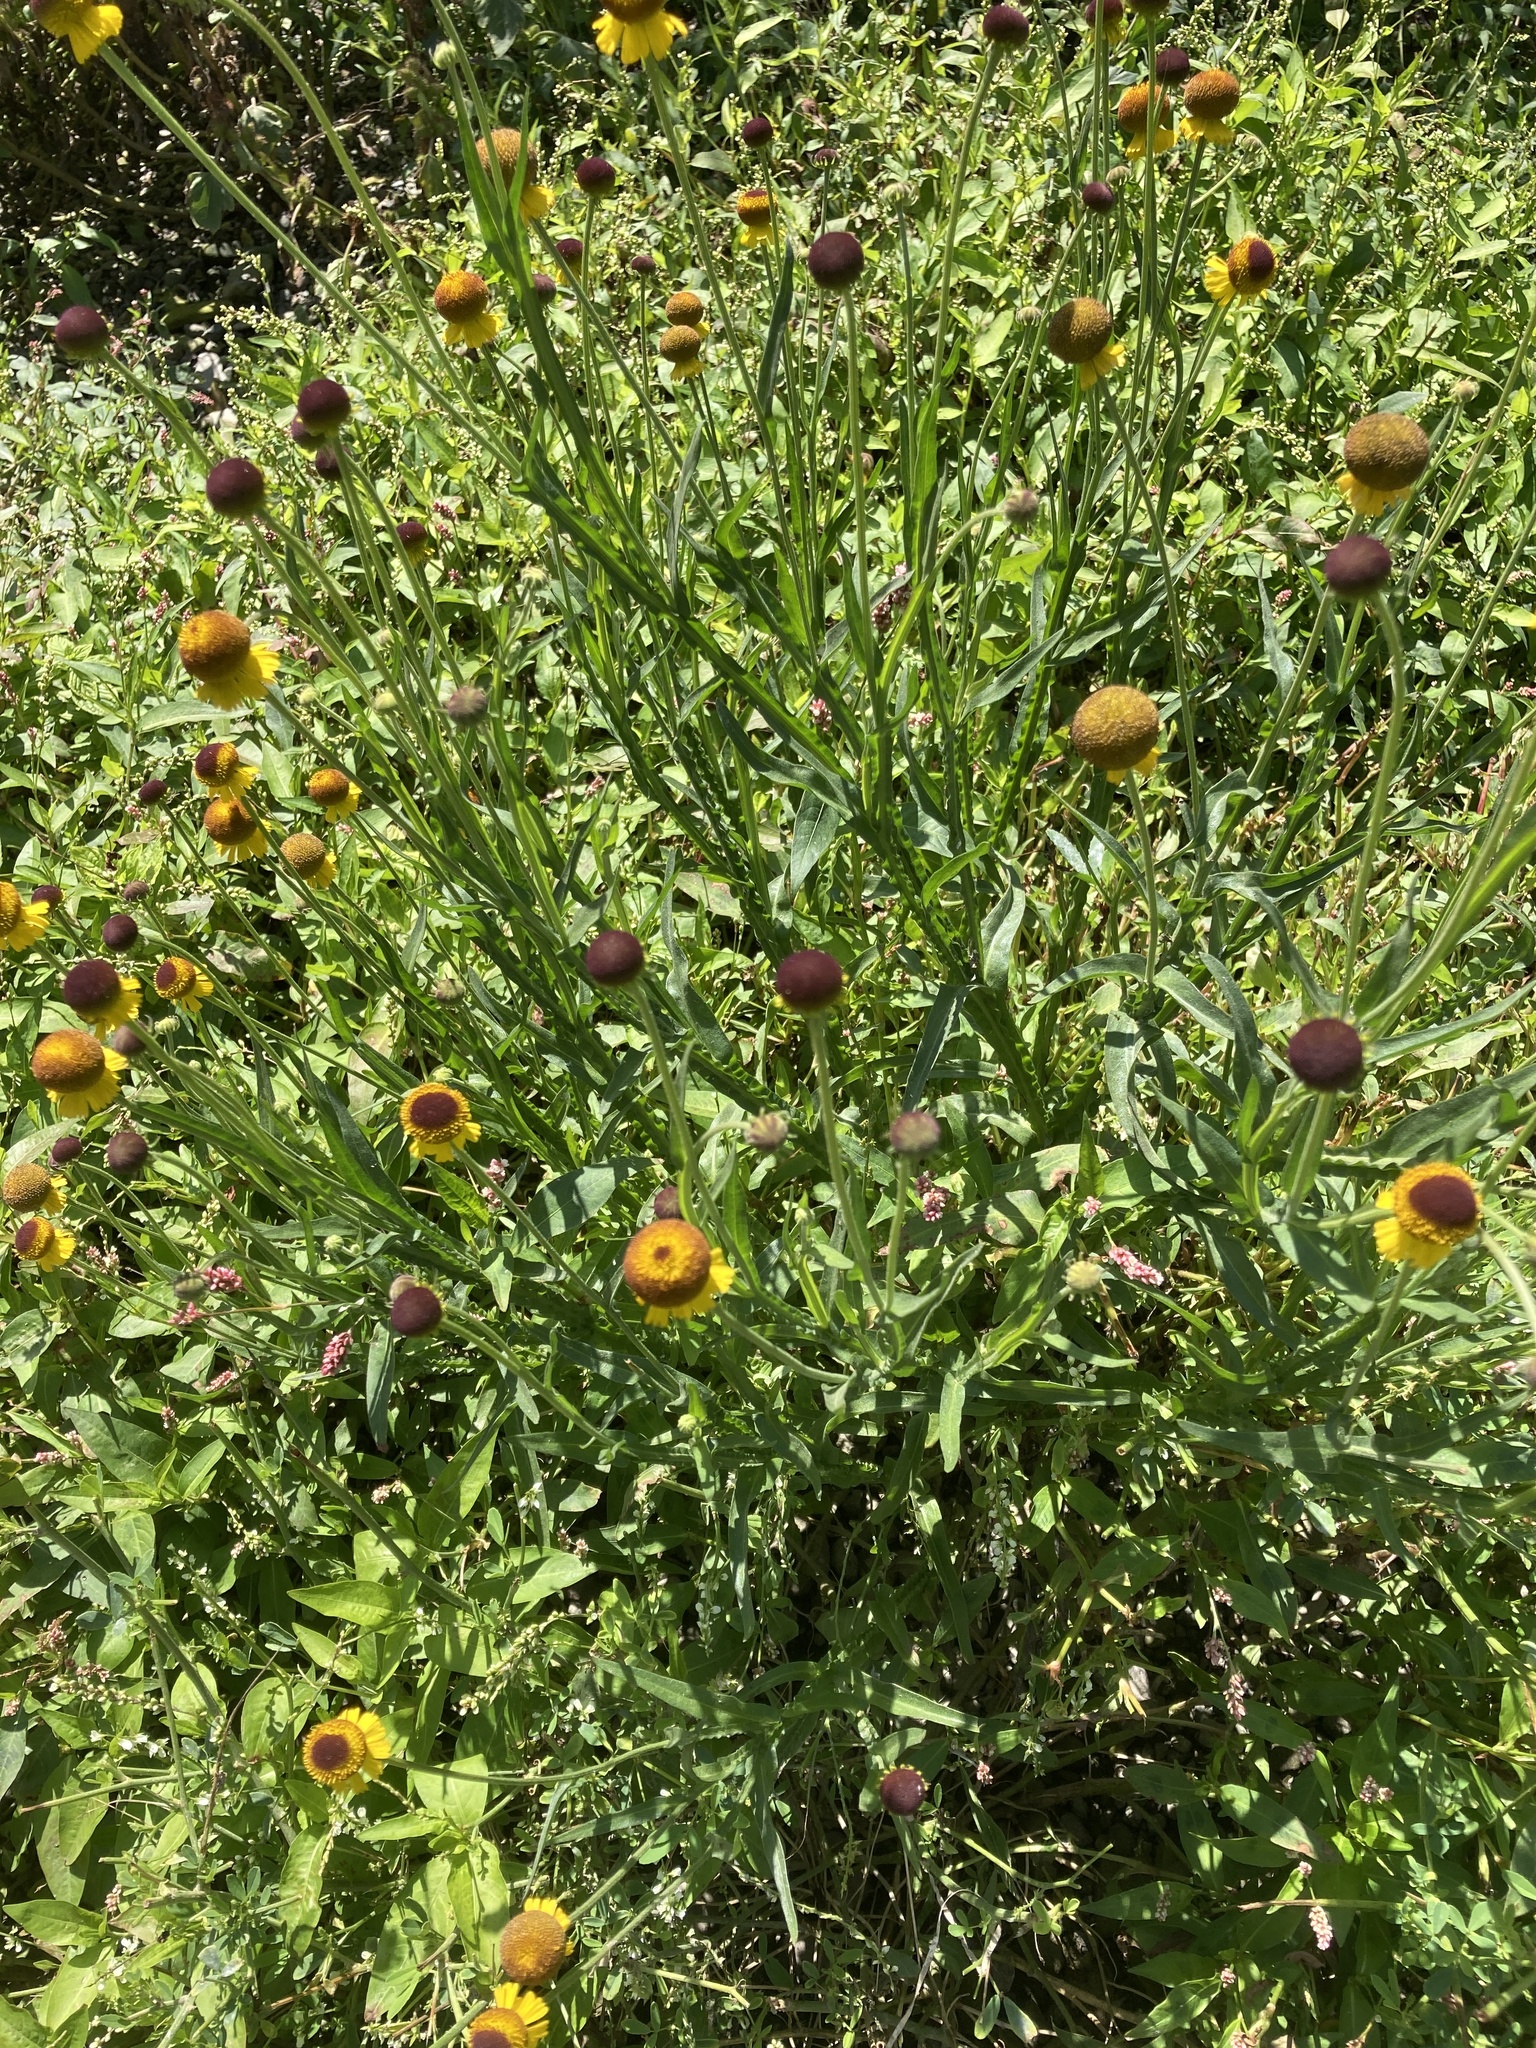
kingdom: Plantae
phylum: Tracheophyta
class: Magnoliopsida
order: Asterales
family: Asteraceae
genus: Helenium
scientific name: Helenium bigelovii
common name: Bigelow's sneezeweed
